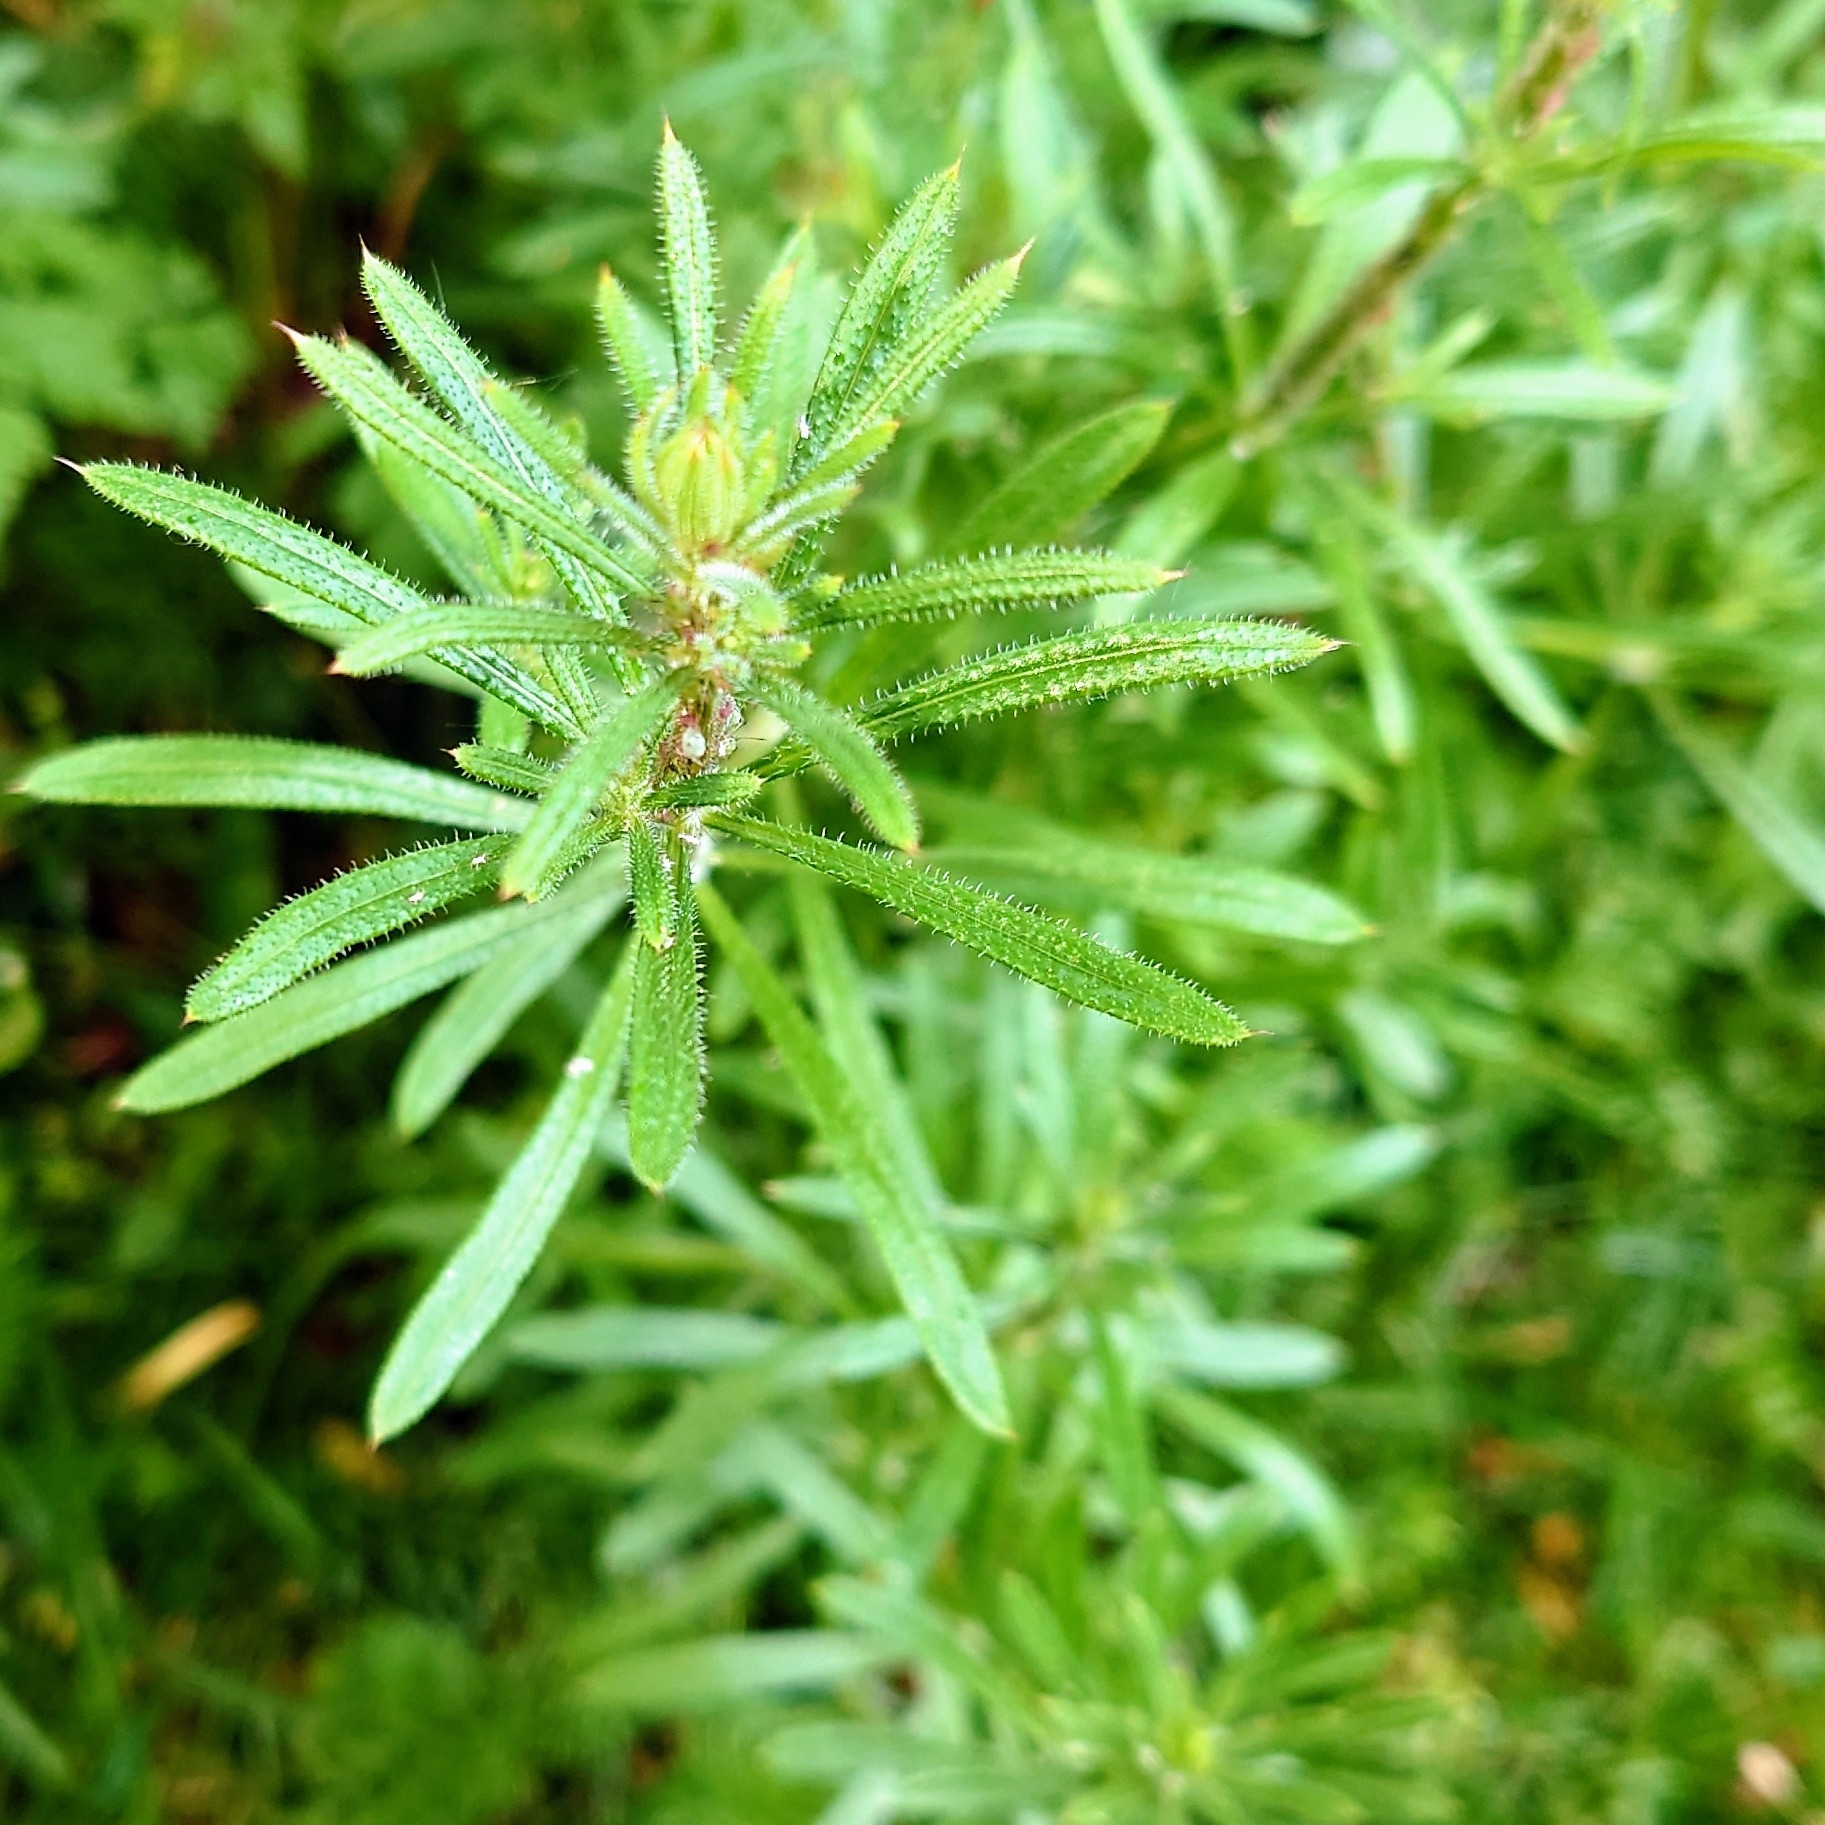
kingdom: Plantae
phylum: Tracheophyta
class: Magnoliopsida
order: Gentianales
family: Rubiaceae
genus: Galium
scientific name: Galium aparine
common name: Cleavers
